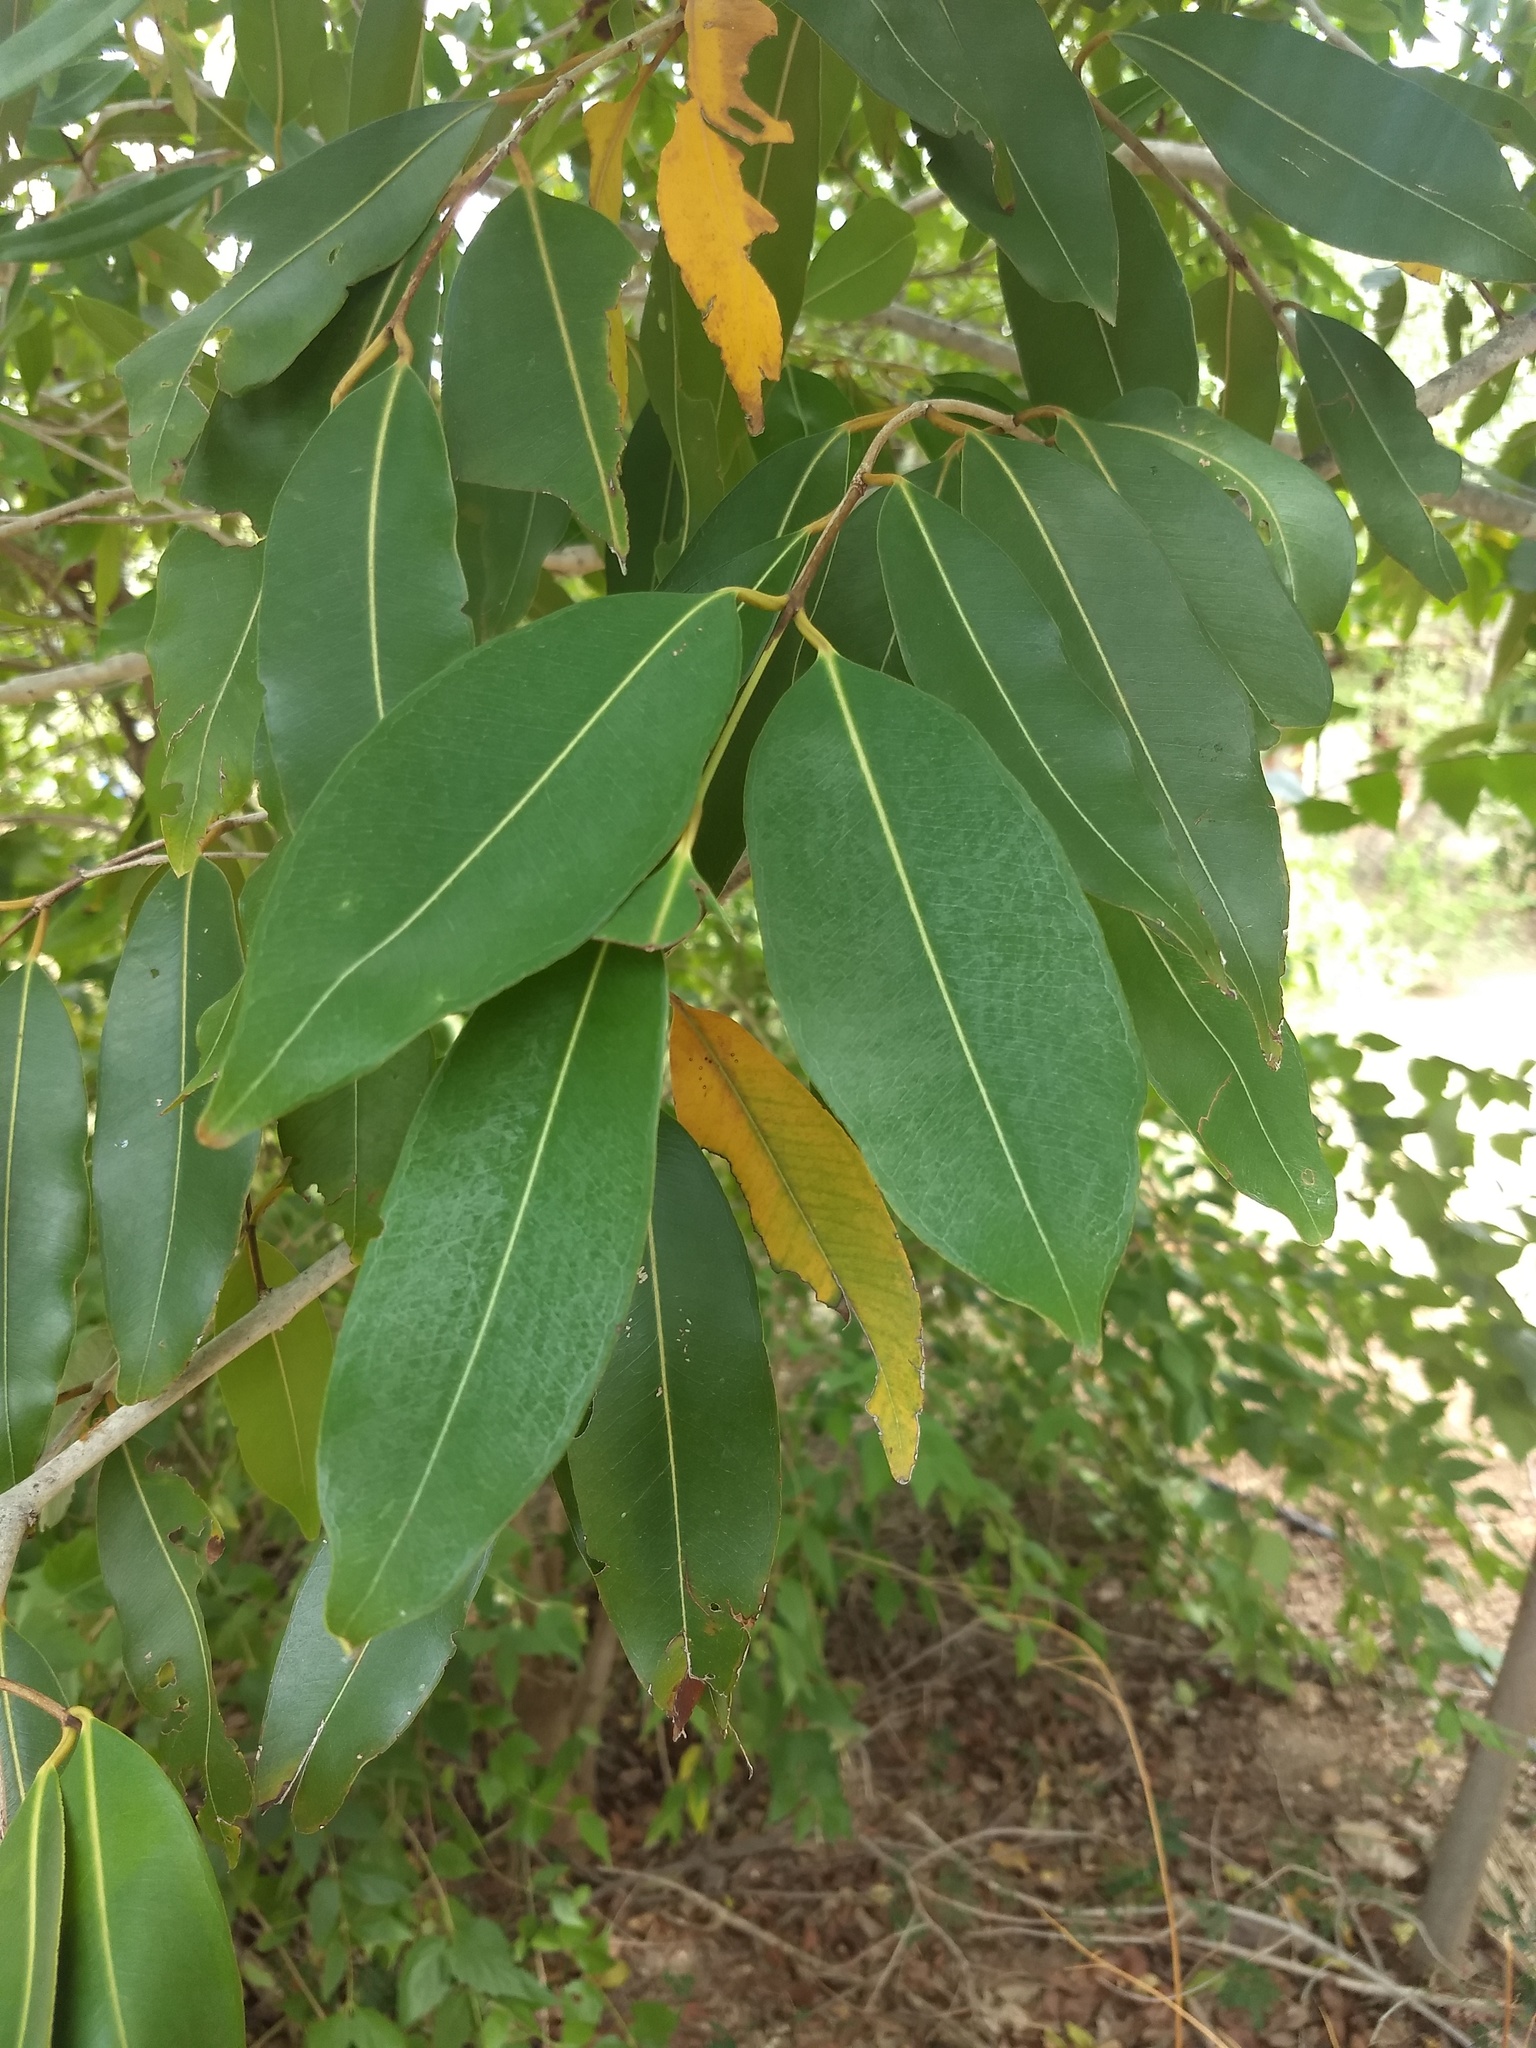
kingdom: Plantae
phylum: Tracheophyta
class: Magnoliopsida
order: Myrtales
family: Myrtaceae
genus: Syzygium
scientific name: Syzygium cumini
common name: Java plum
